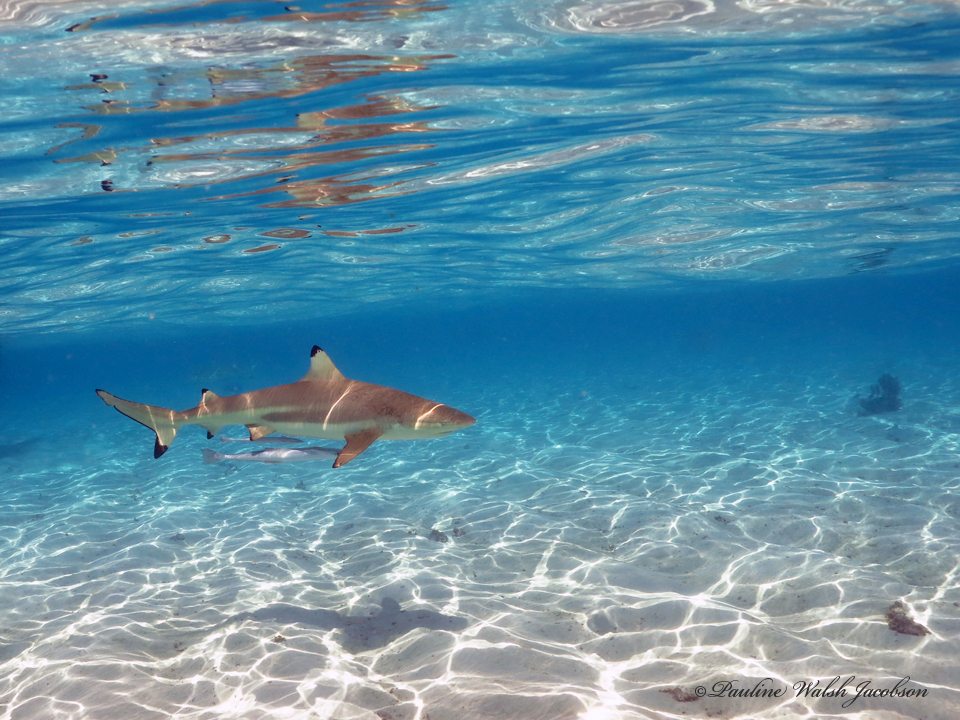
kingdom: Animalia
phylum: Chordata
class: Elasmobranchii
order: Carcharhiniformes
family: Carcharhinidae
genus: Carcharhinus
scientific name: Carcharhinus melanopterus
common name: Blacktip reef shark
